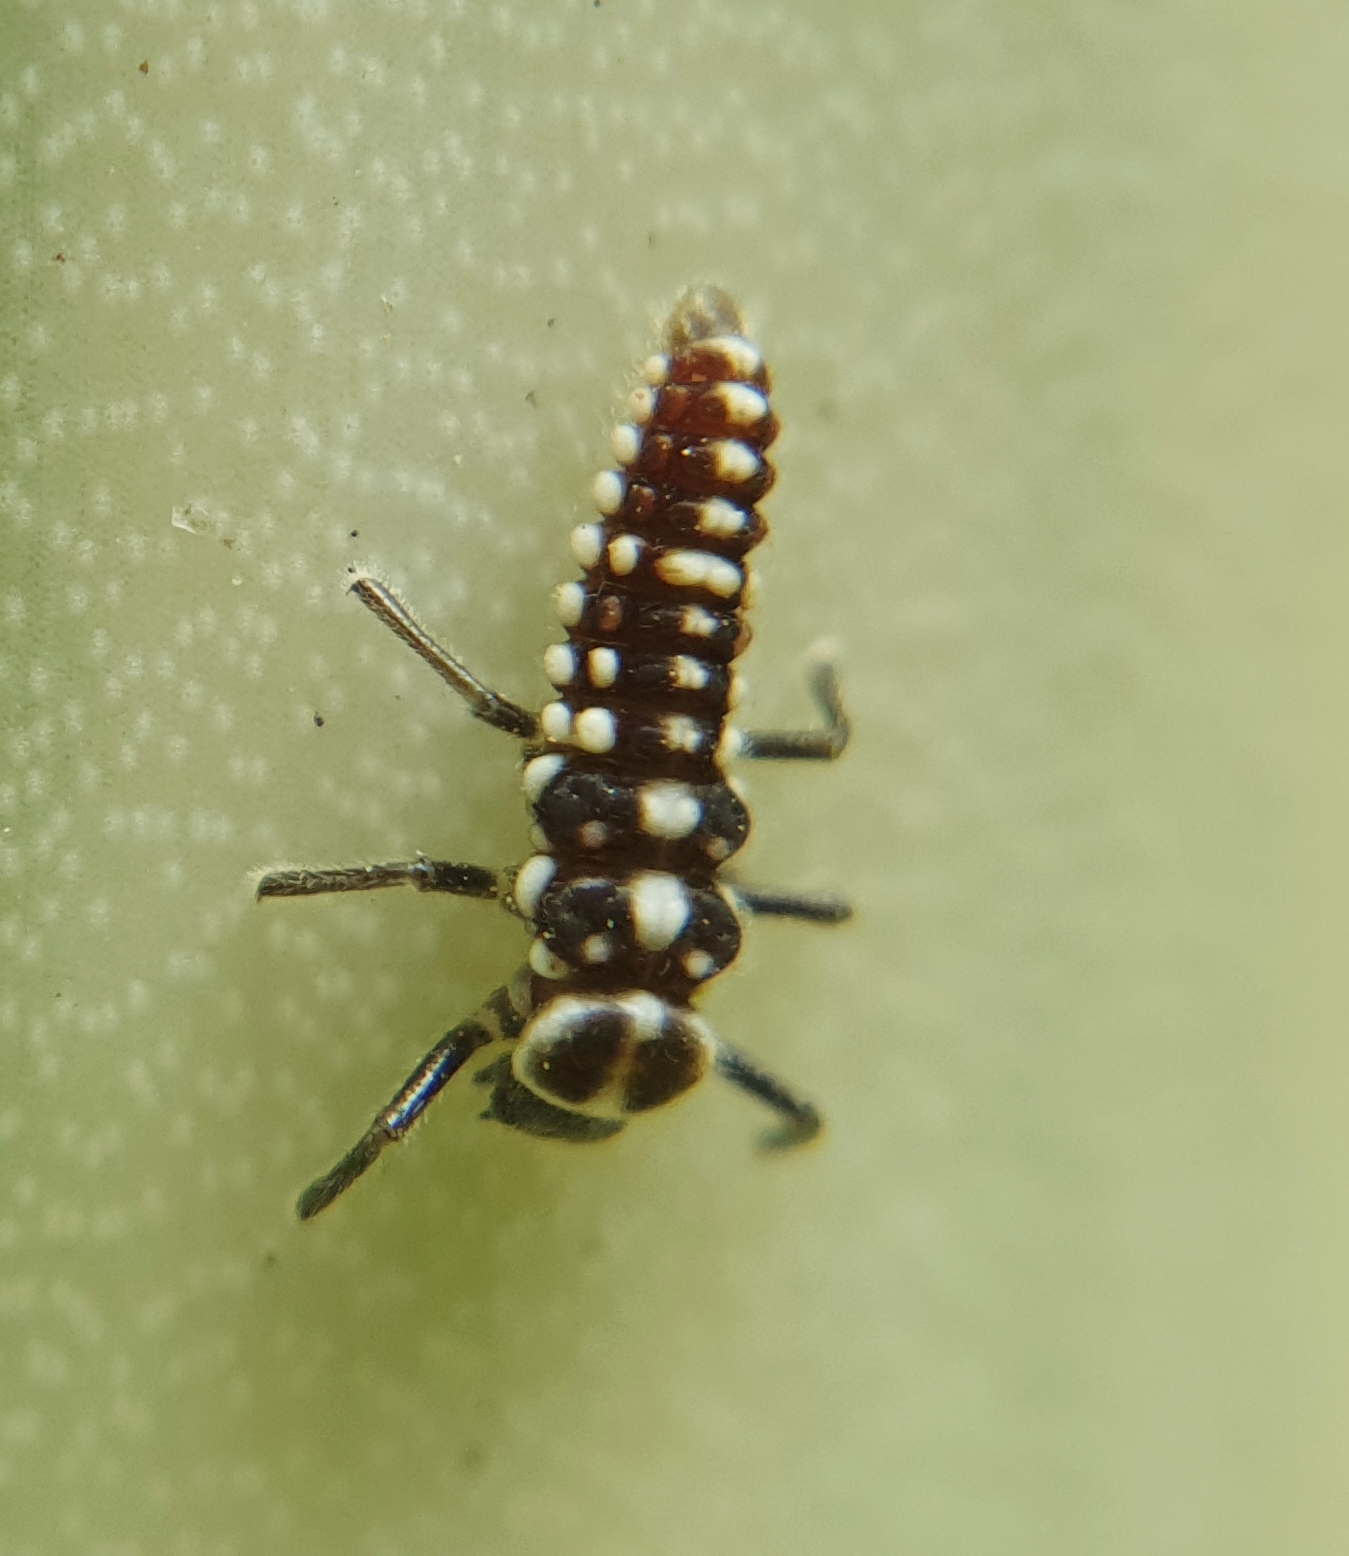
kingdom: Animalia
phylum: Arthropoda
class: Insecta
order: Coleoptera
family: Coccinellidae
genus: Anegleis
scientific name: Anegleis cardoni
